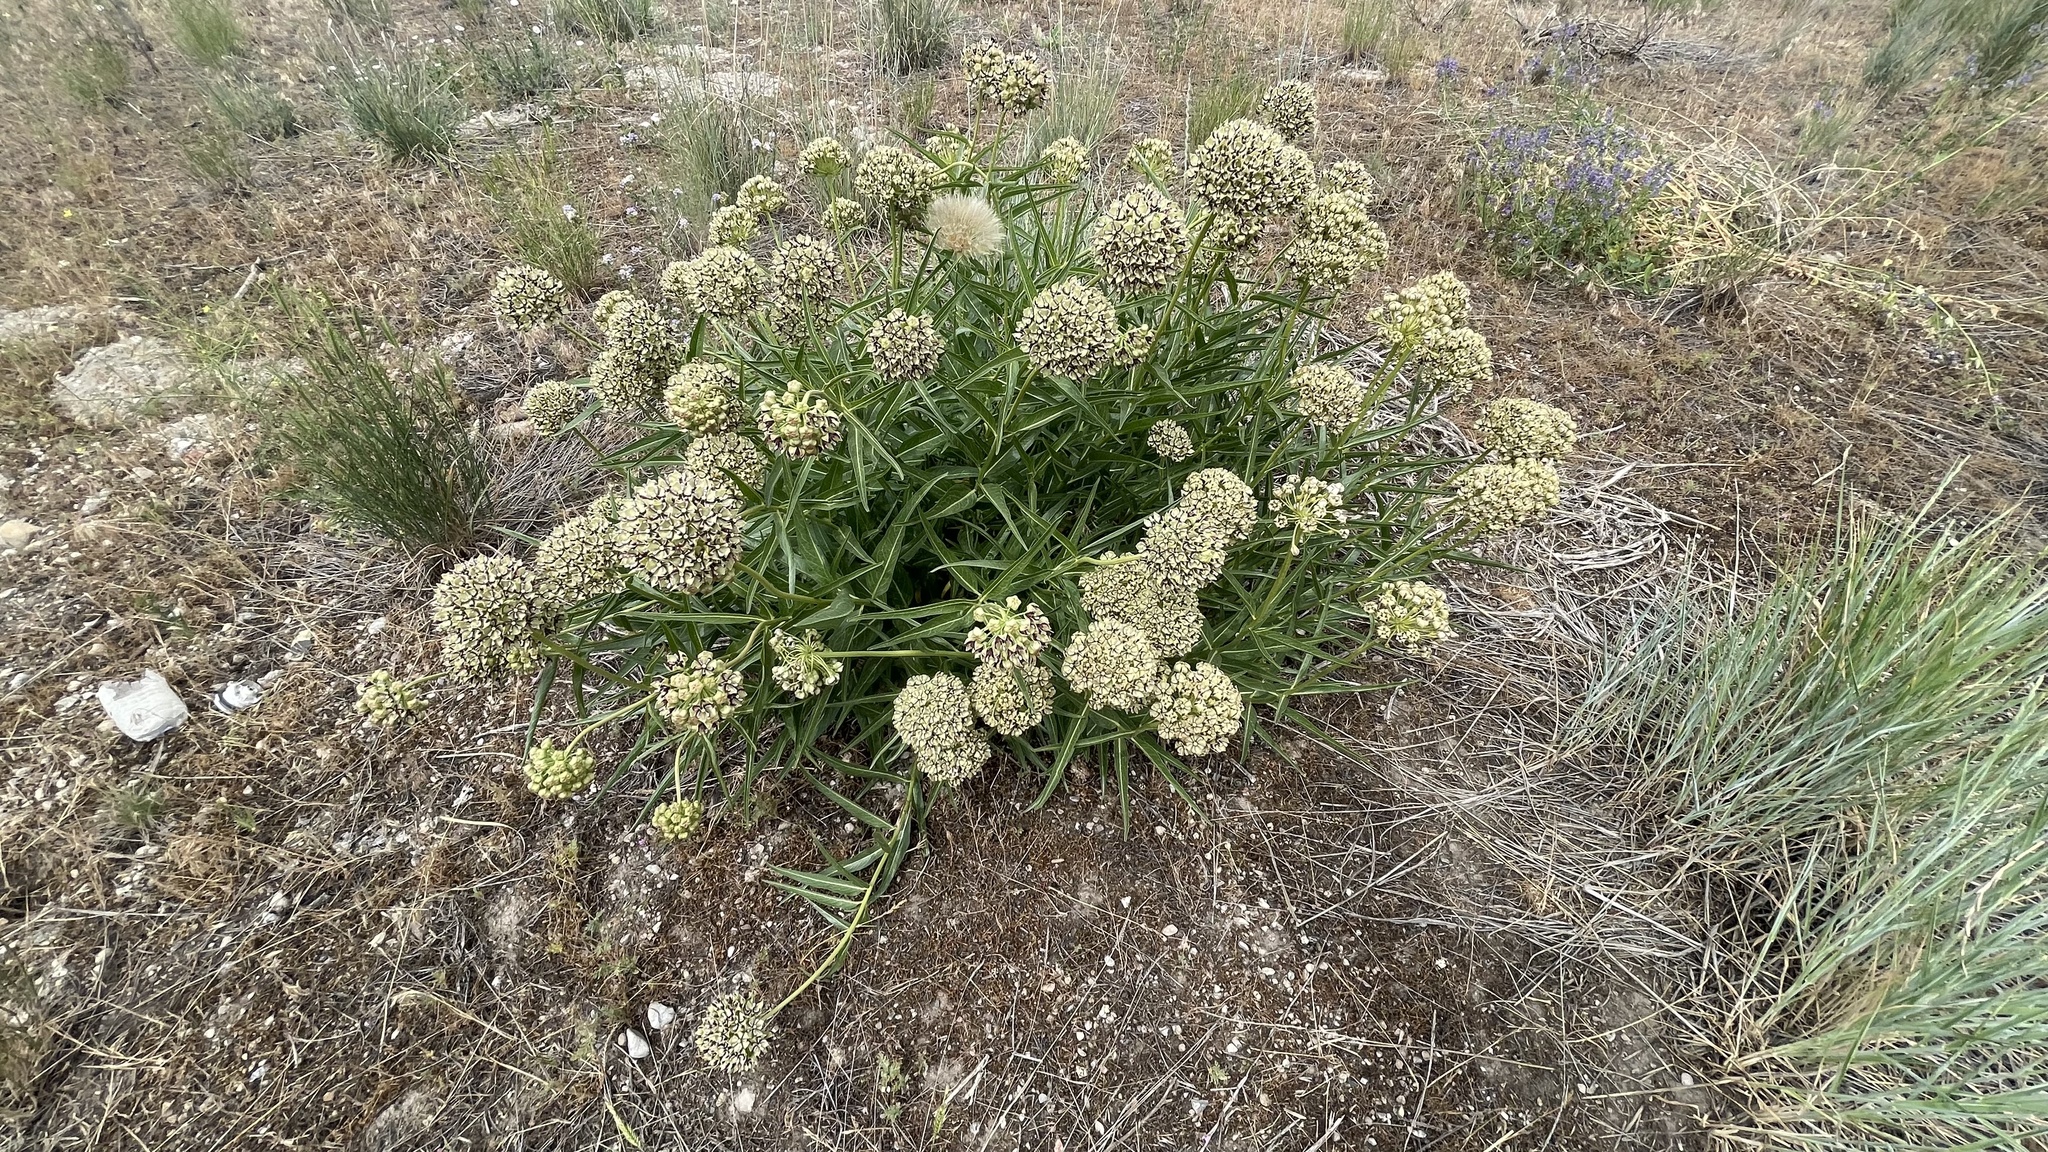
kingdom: Plantae
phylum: Tracheophyta
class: Magnoliopsida
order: Gentianales
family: Apocynaceae
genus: Asclepias
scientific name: Asclepias asperula
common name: Antelope horns
